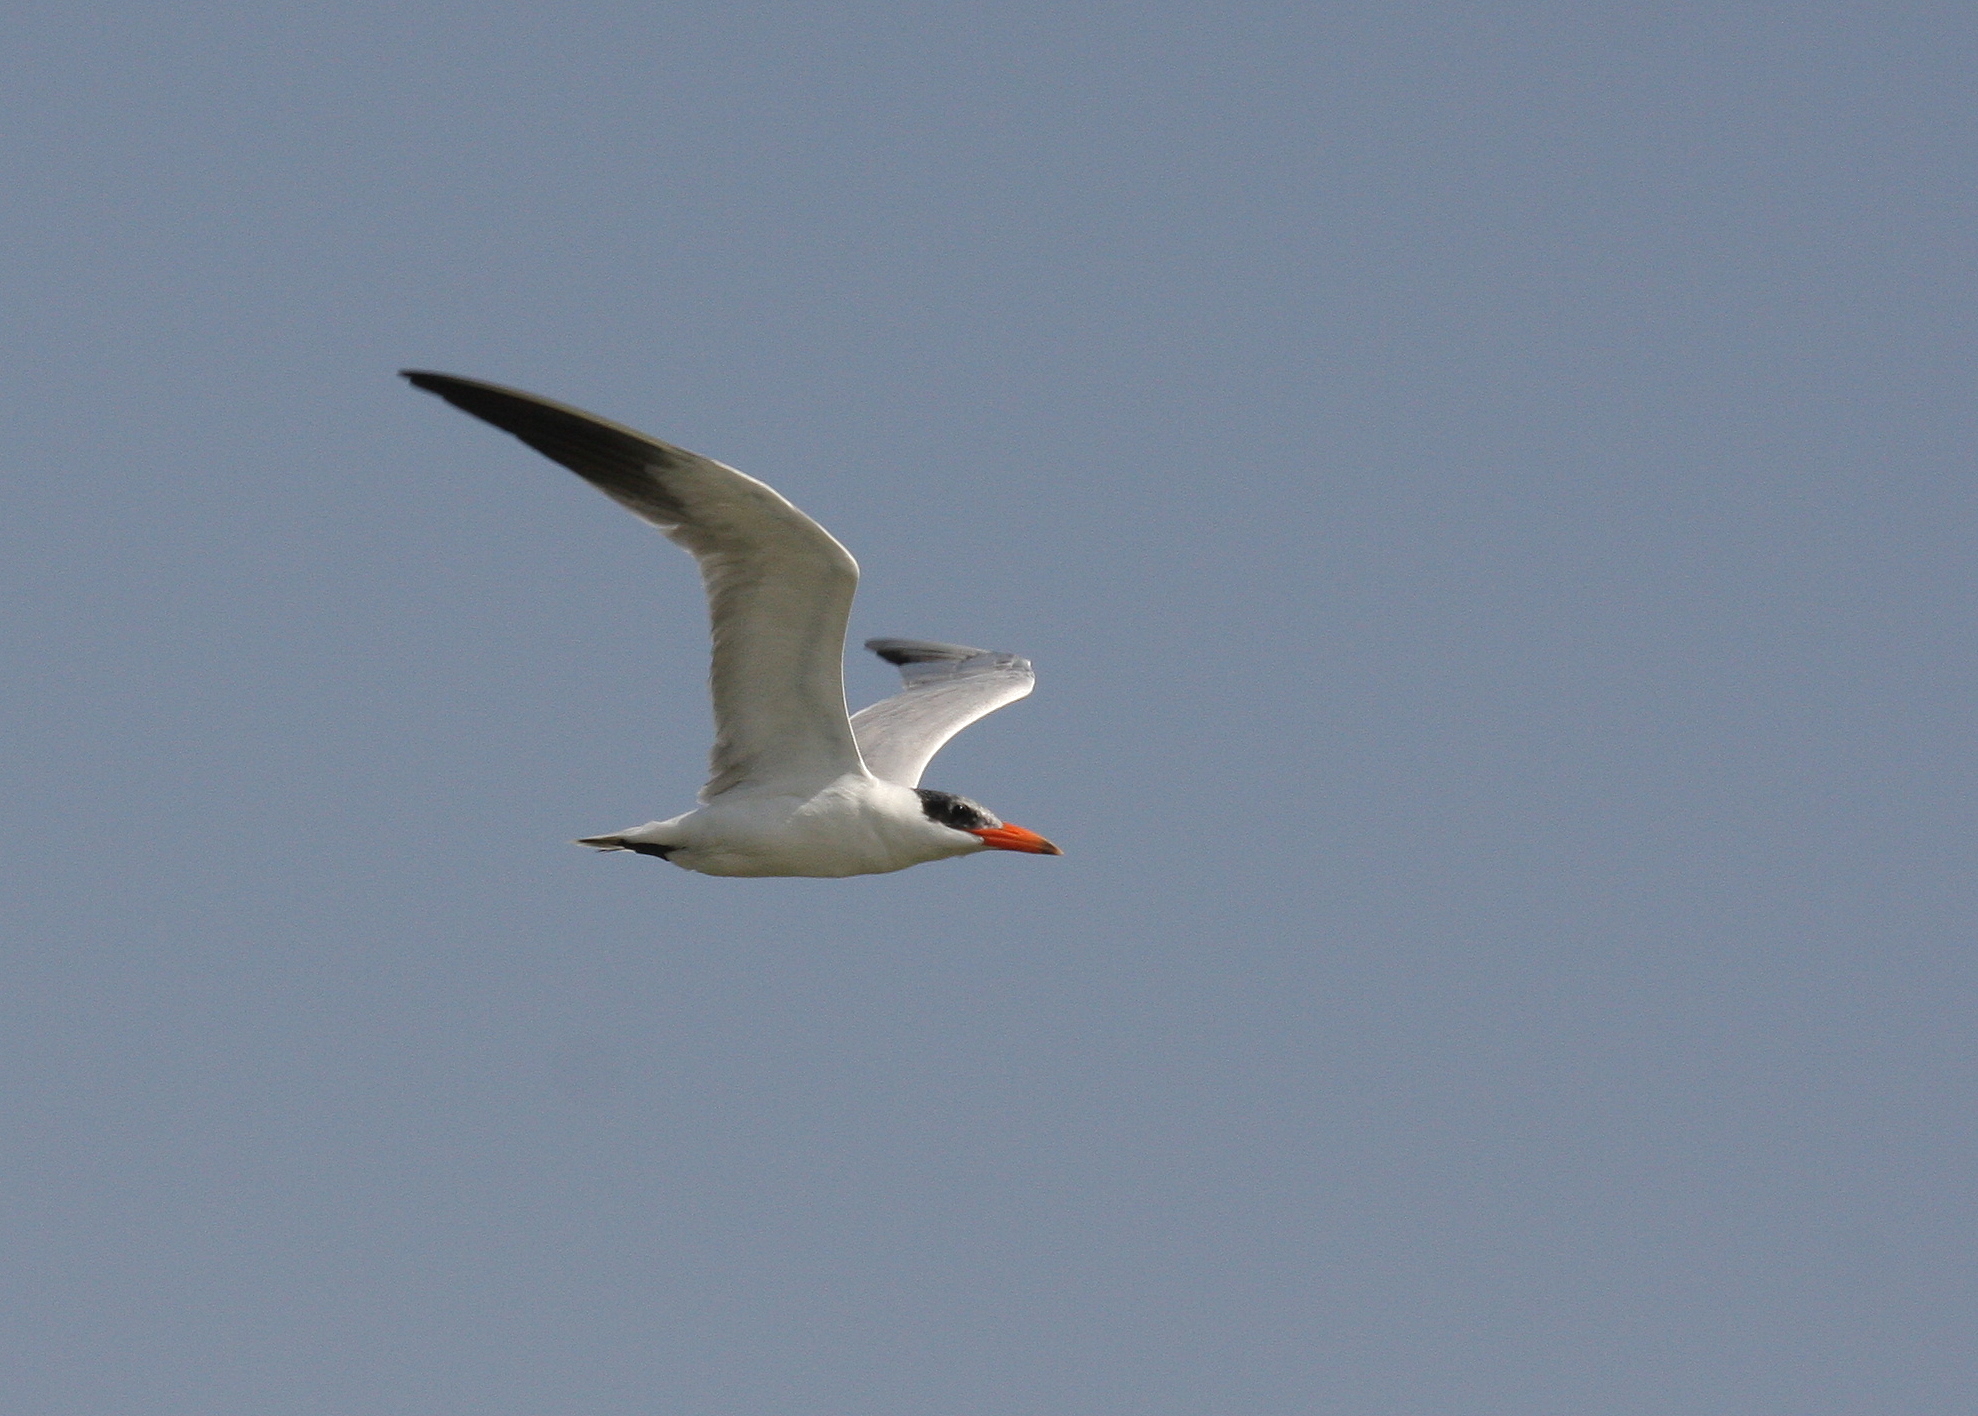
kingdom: Animalia
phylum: Chordata
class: Aves
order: Charadriiformes
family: Laridae
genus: Hydroprogne
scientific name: Hydroprogne caspia
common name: Caspian tern
